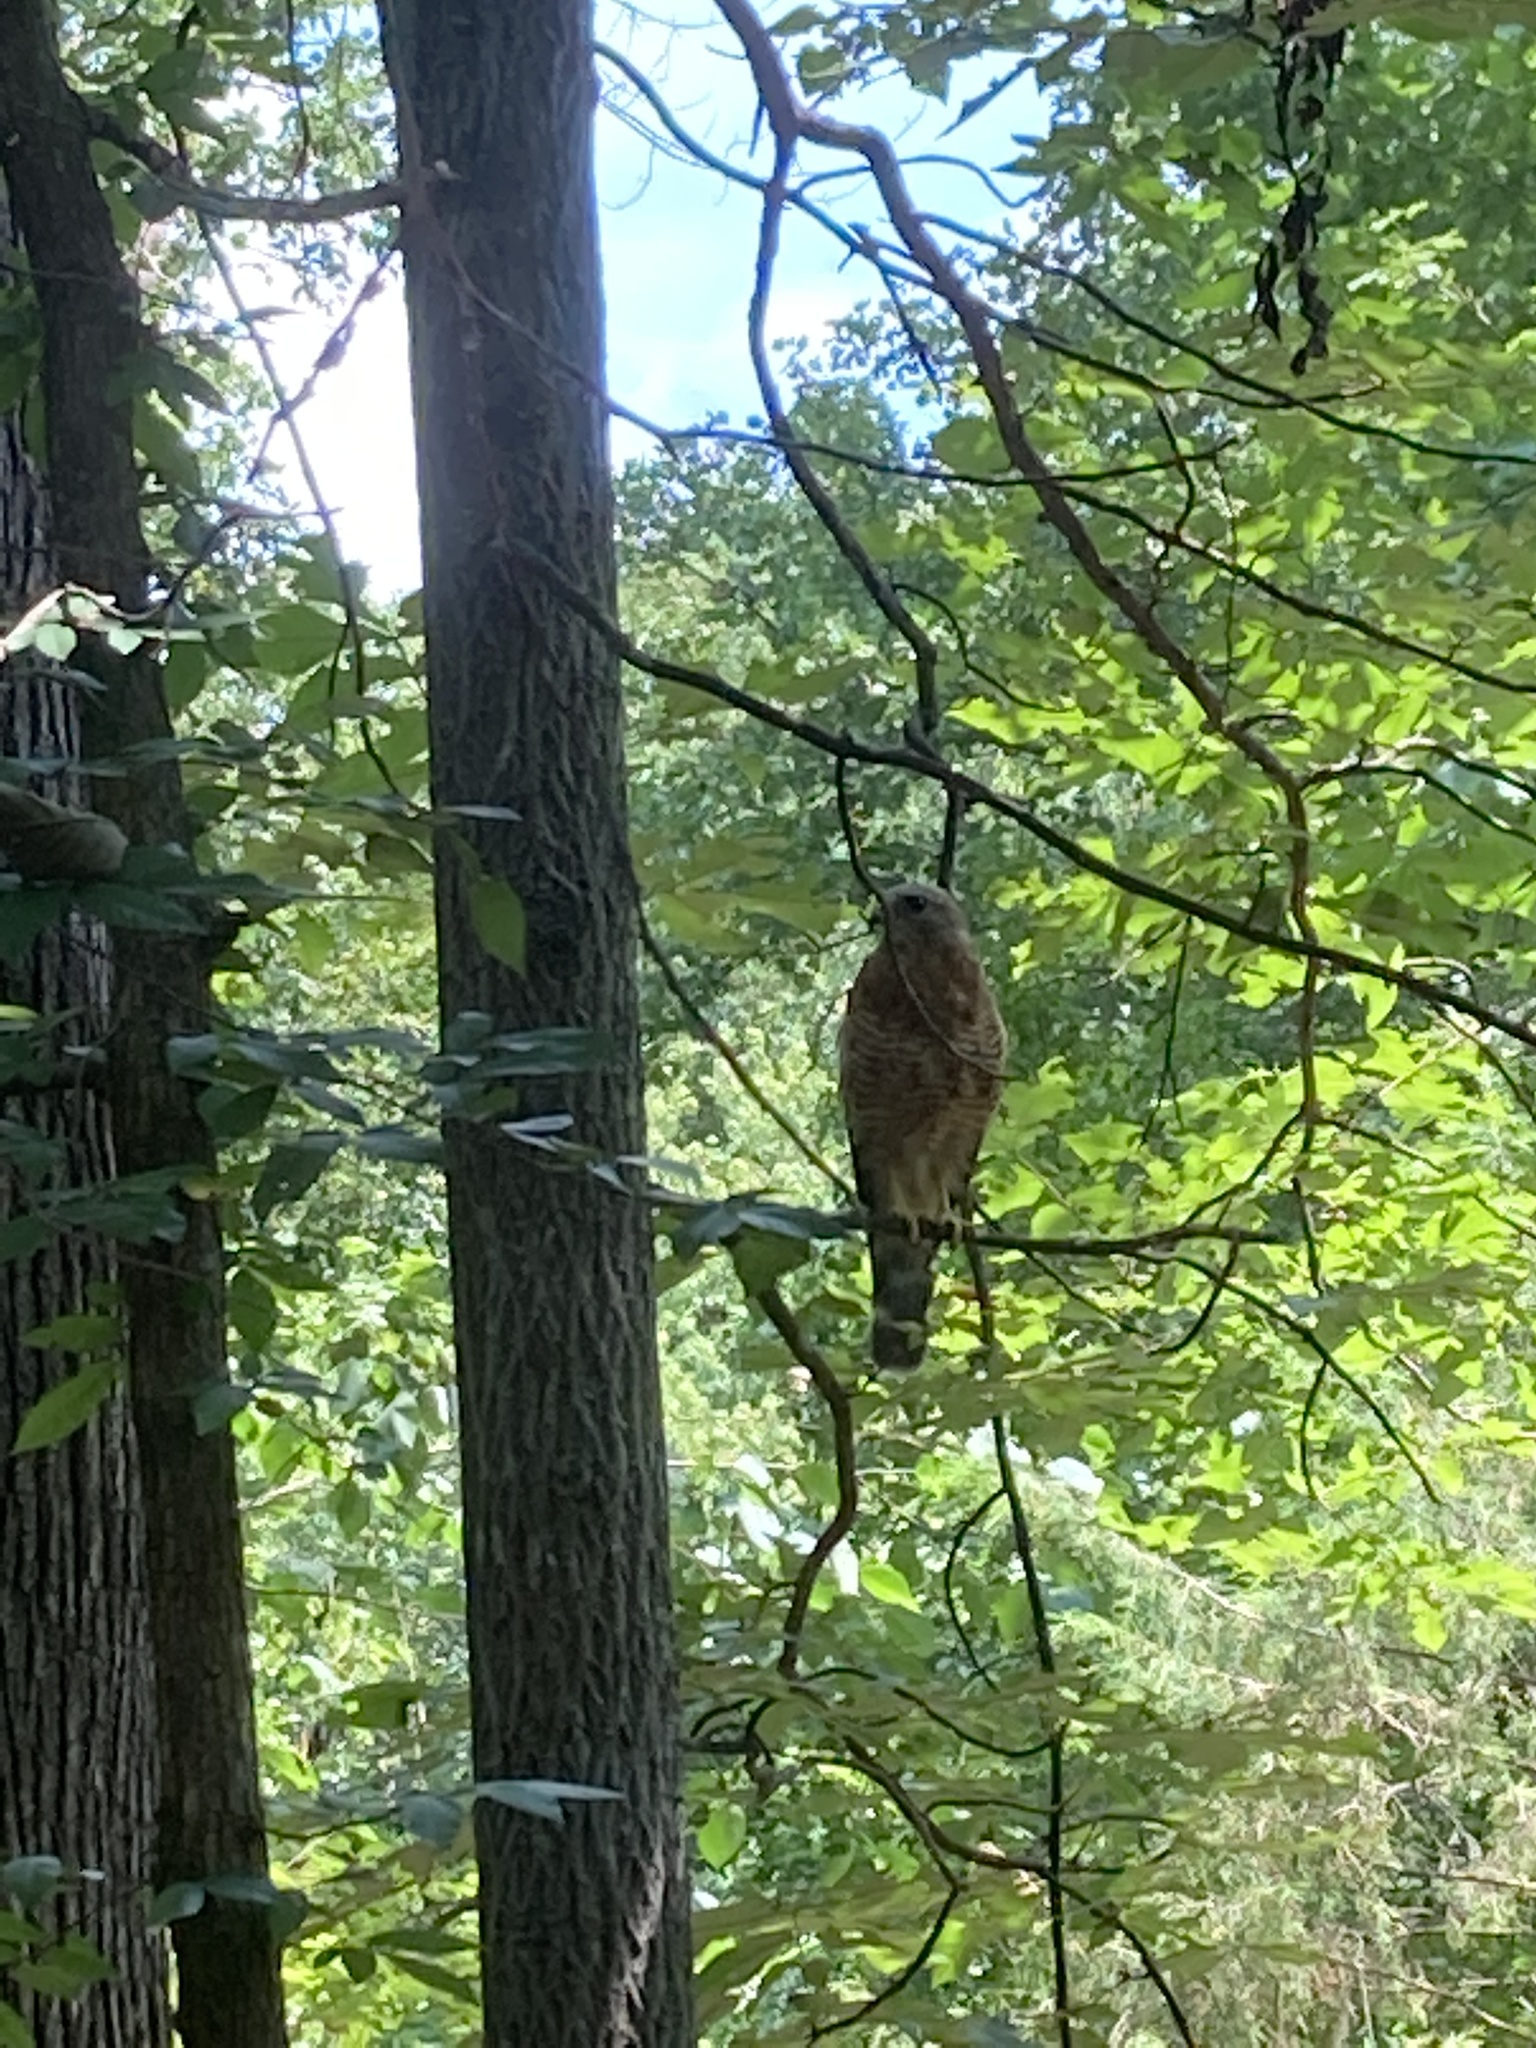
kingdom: Animalia
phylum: Chordata
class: Aves
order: Accipitriformes
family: Accipitridae
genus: Buteo
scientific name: Buteo lineatus
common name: Red-shouldered hawk
